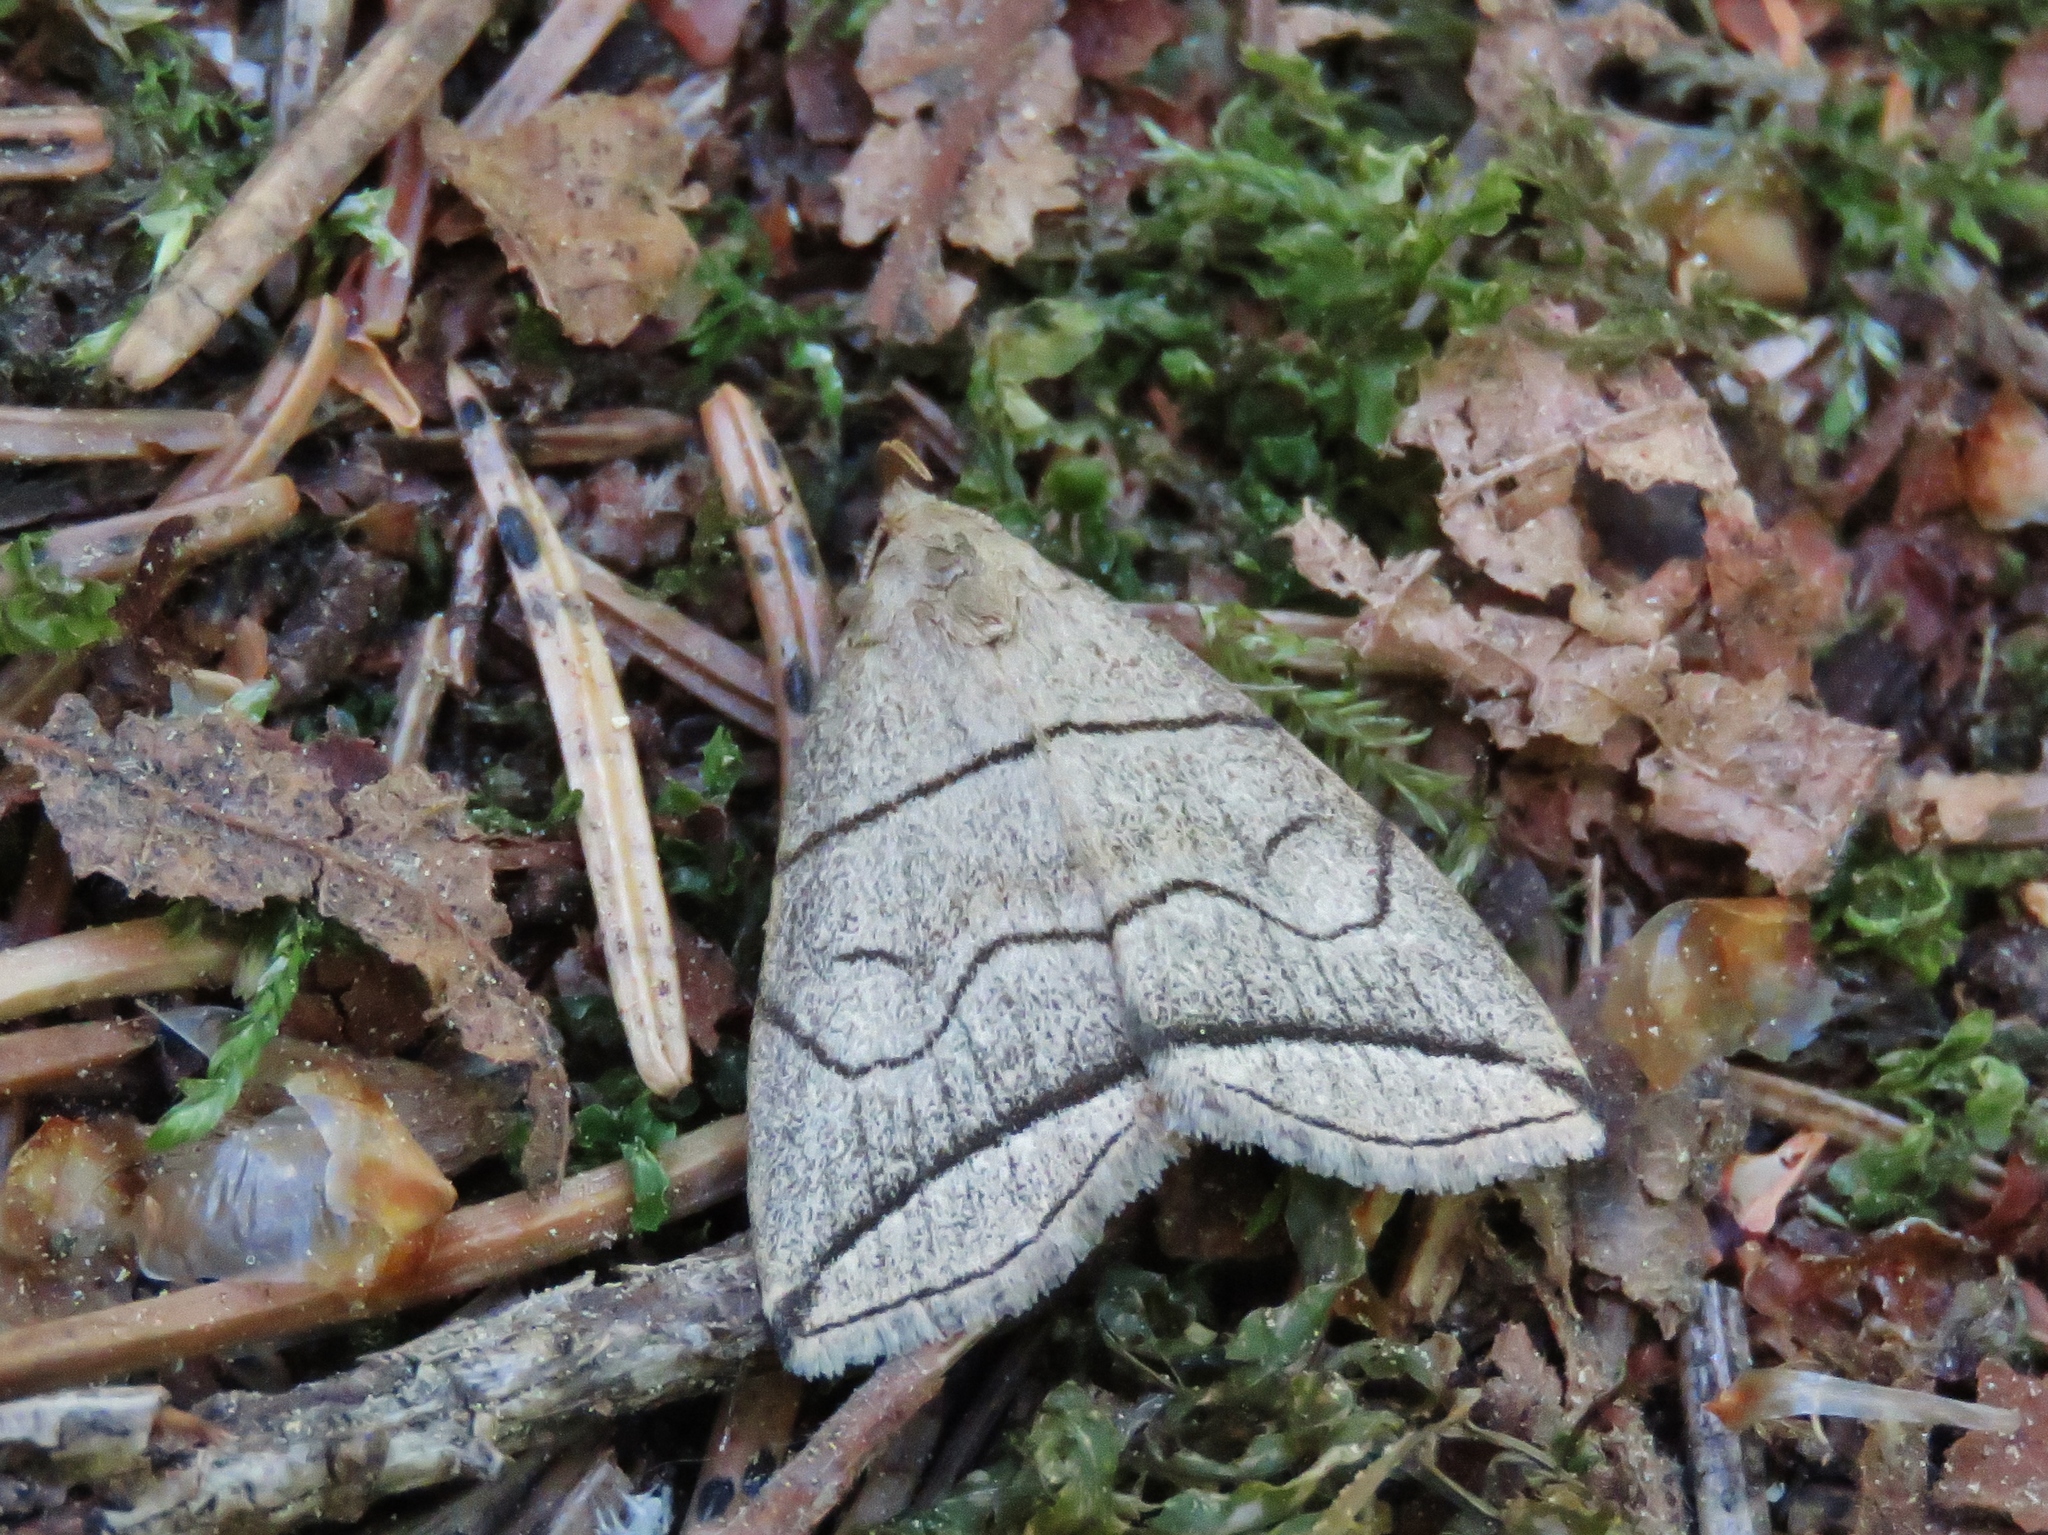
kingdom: Animalia
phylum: Arthropoda
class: Insecta
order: Lepidoptera
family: Erebidae
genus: Herminia
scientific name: Herminia grisealis
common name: Small fan-foot
